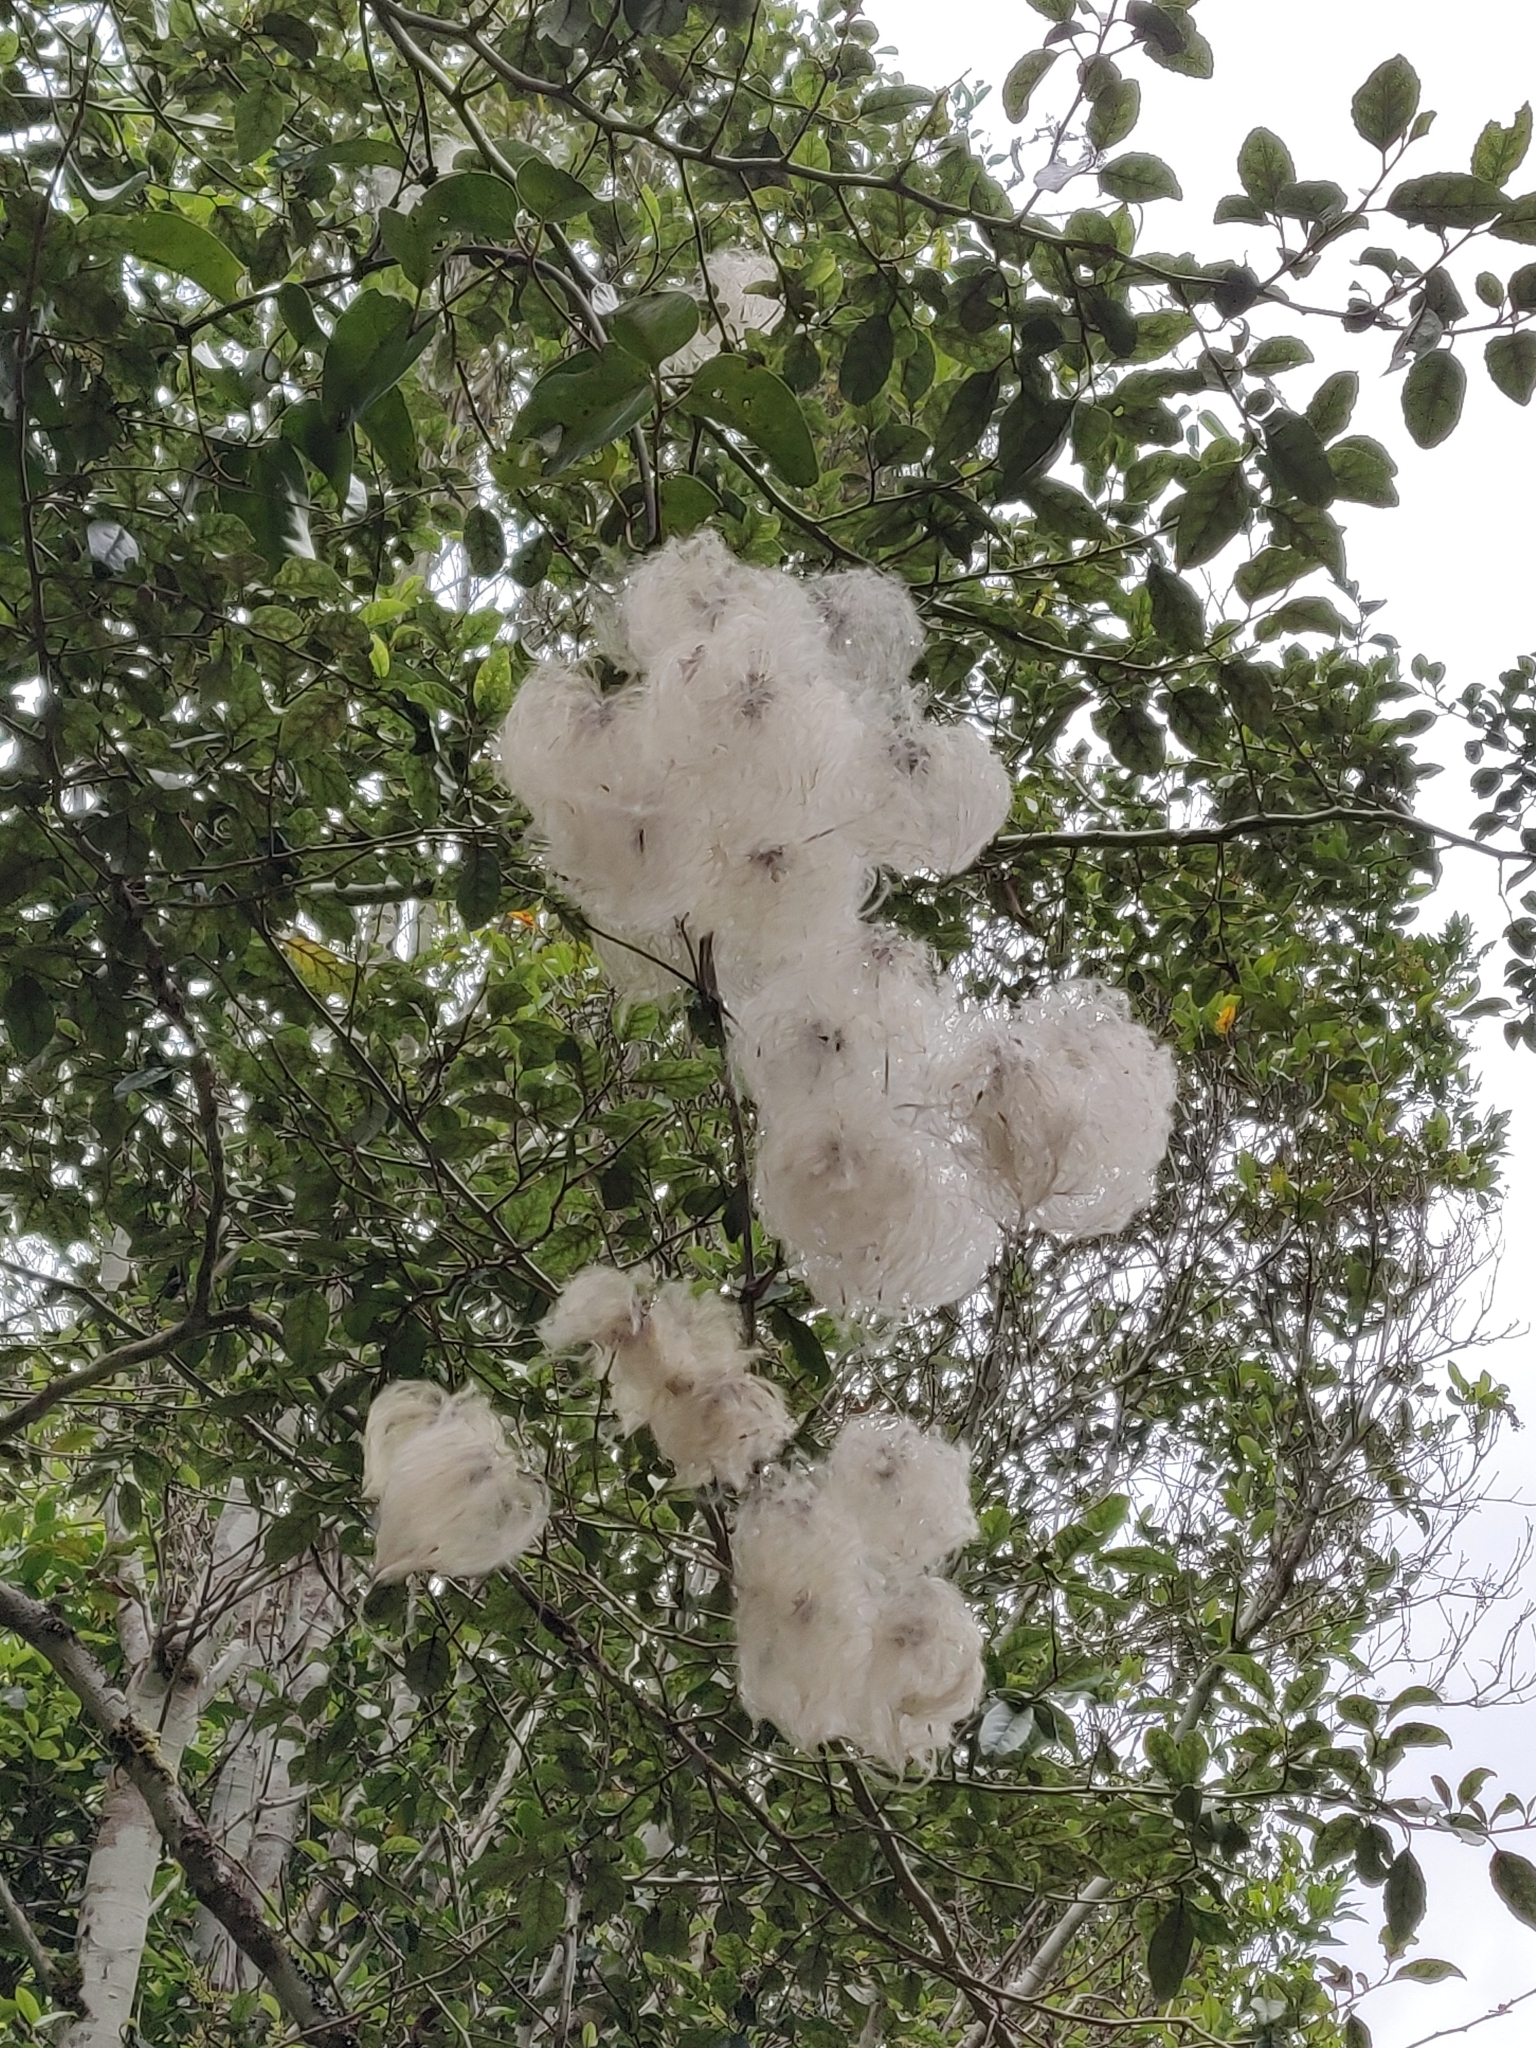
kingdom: Plantae
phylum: Tracheophyta
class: Magnoliopsida
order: Ranunculales
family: Ranunculaceae
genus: Clematis
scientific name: Clematis paniculata
